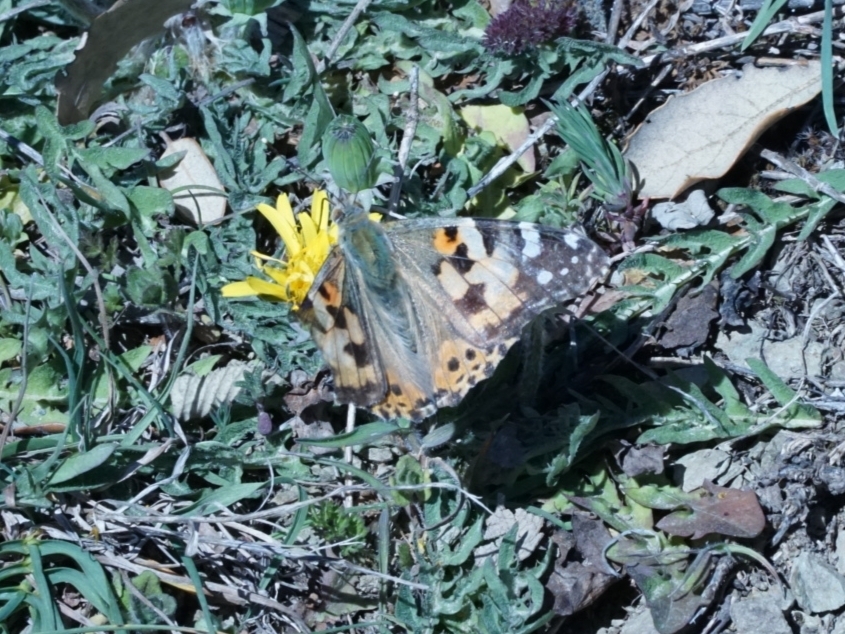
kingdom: Animalia
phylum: Arthropoda
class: Insecta
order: Lepidoptera
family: Nymphalidae
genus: Vanessa
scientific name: Vanessa cardui
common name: Painted lady
